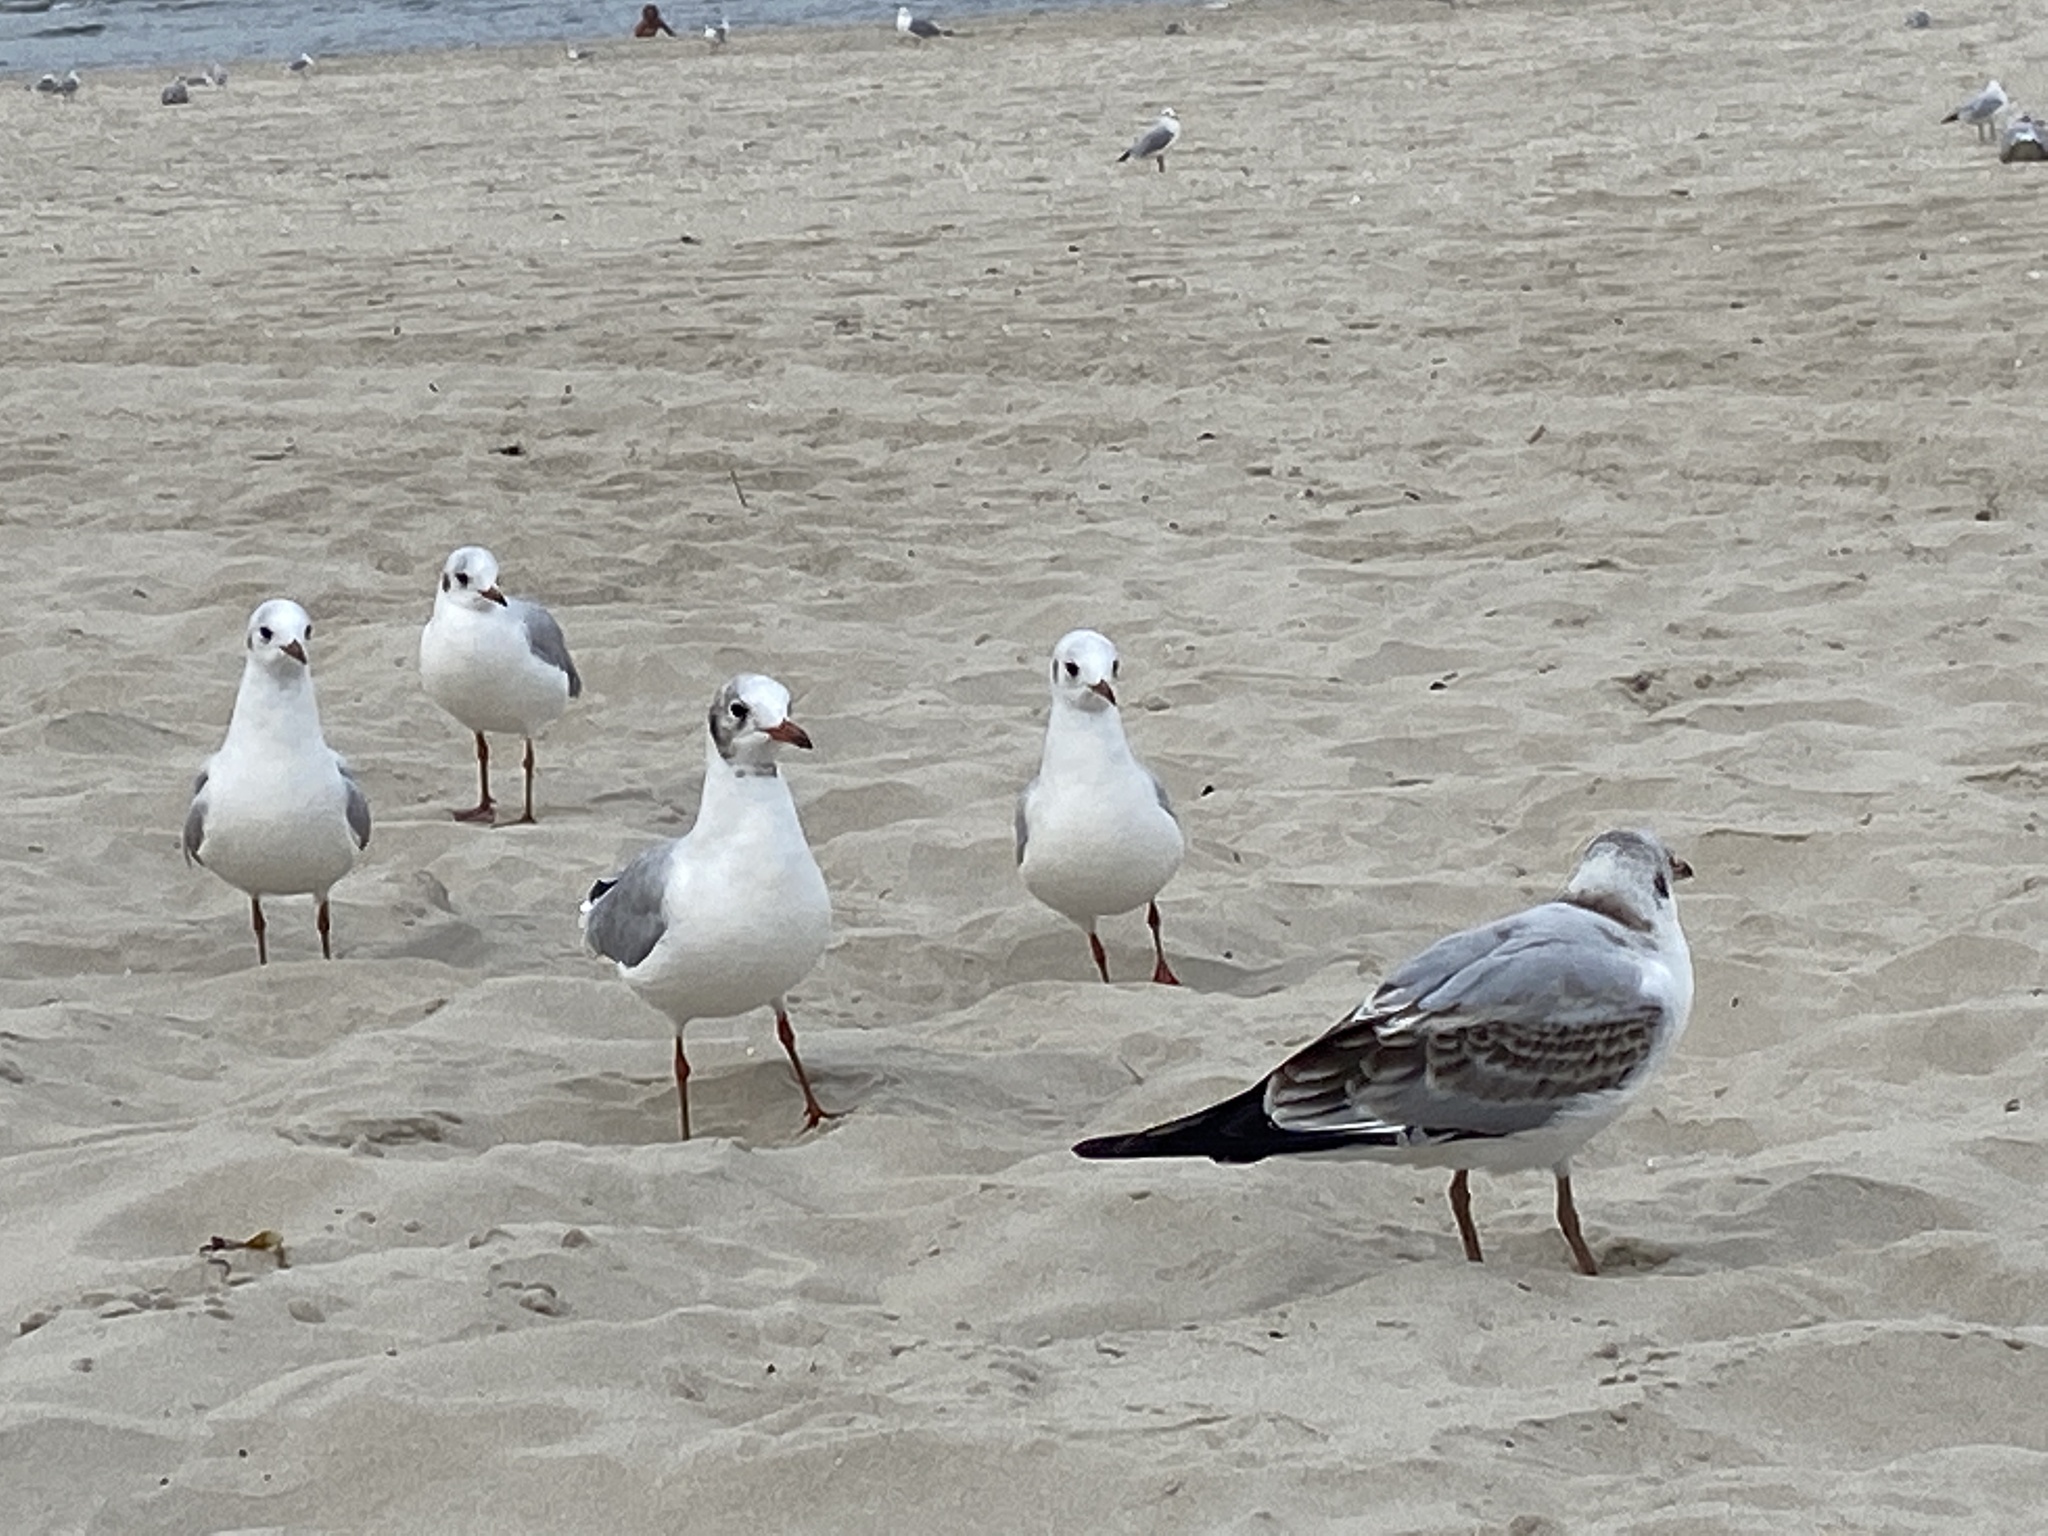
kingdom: Animalia
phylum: Chordata
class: Aves
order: Charadriiformes
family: Laridae
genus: Chroicocephalus
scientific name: Chroicocephalus ridibundus
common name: Black-headed gull
